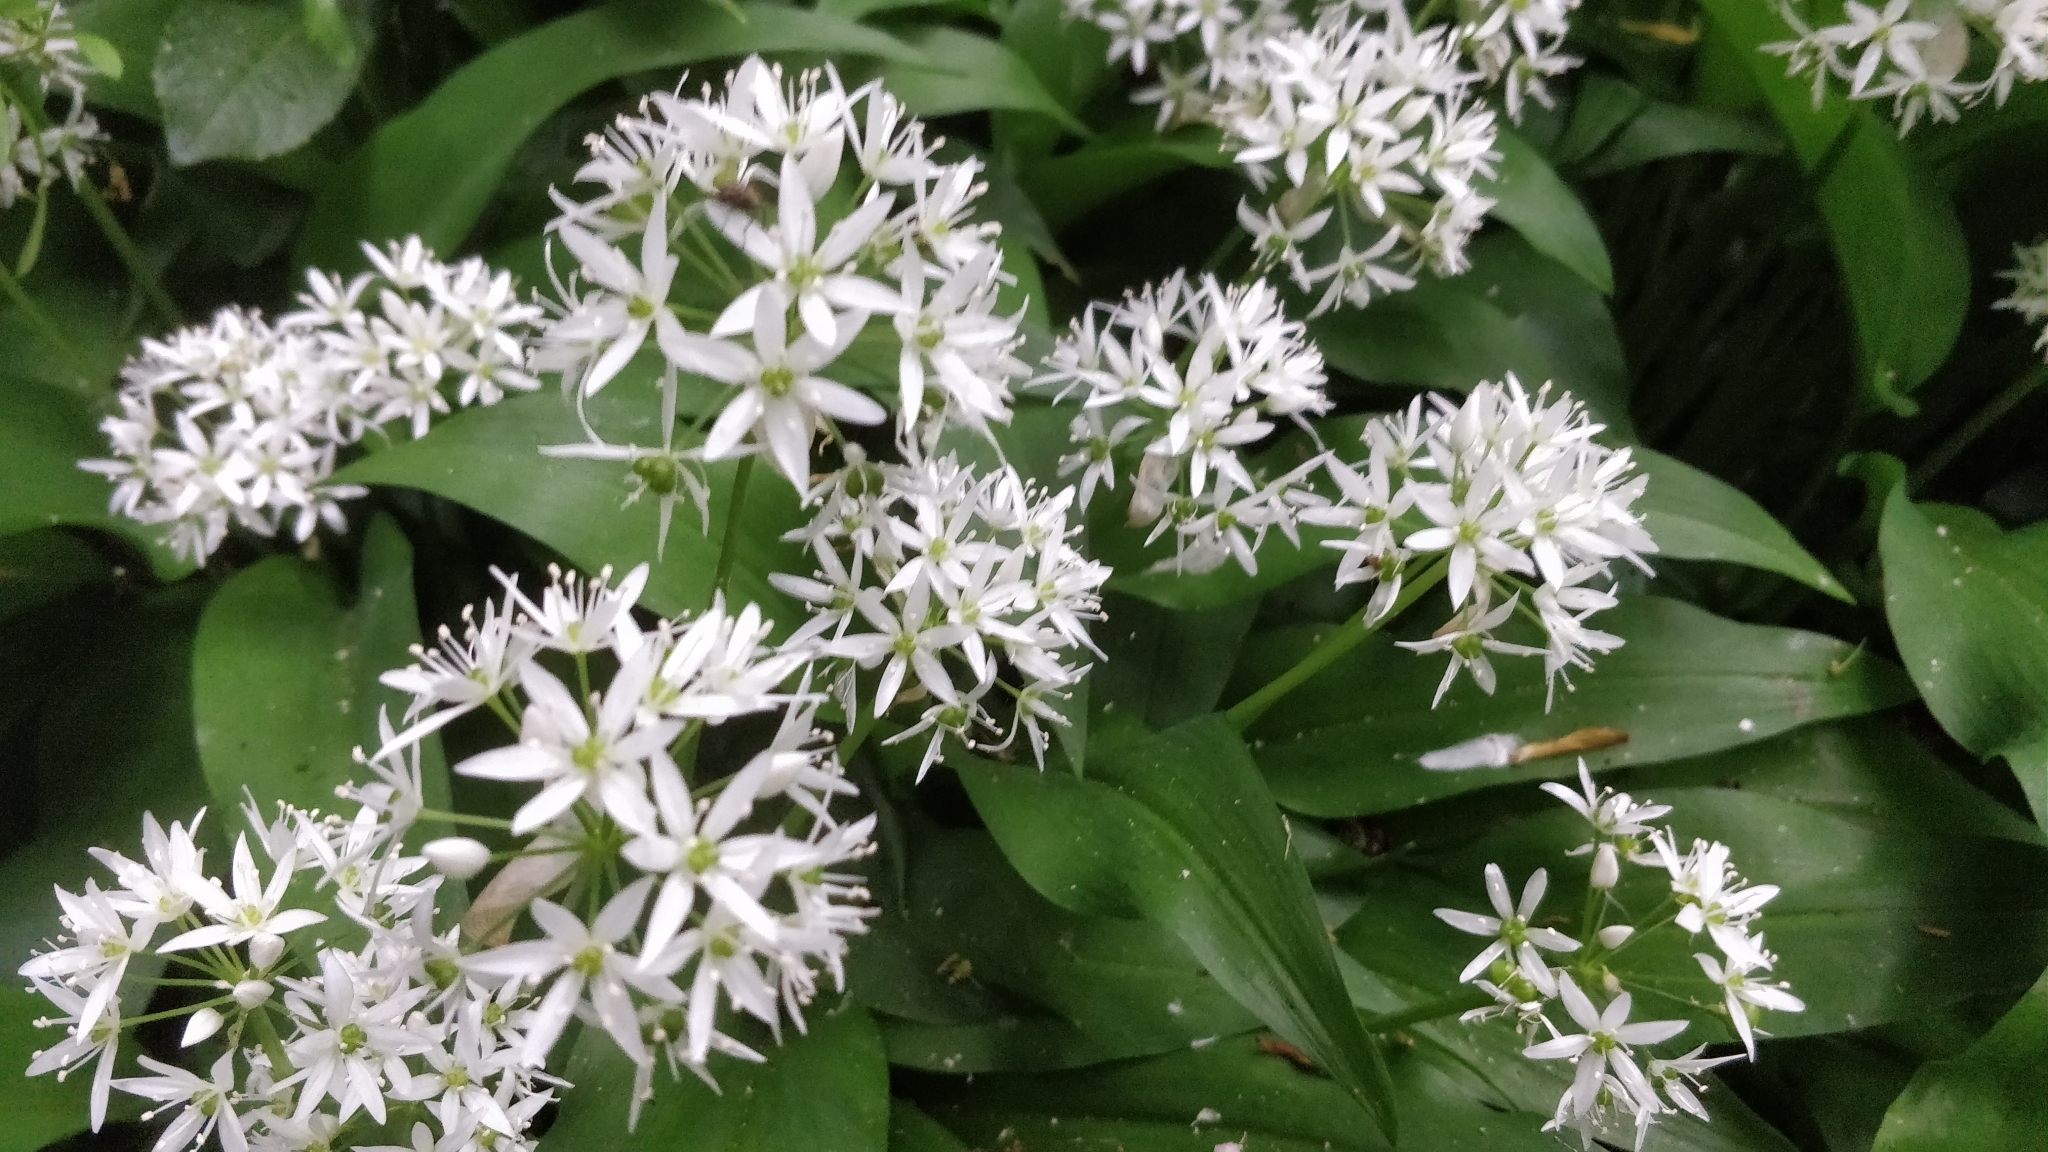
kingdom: Plantae
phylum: Tracheophyta
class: Liliopsida
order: Asparagales
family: Amaryllidaceae
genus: Allium
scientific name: Allium ursinum
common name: Ramsons
